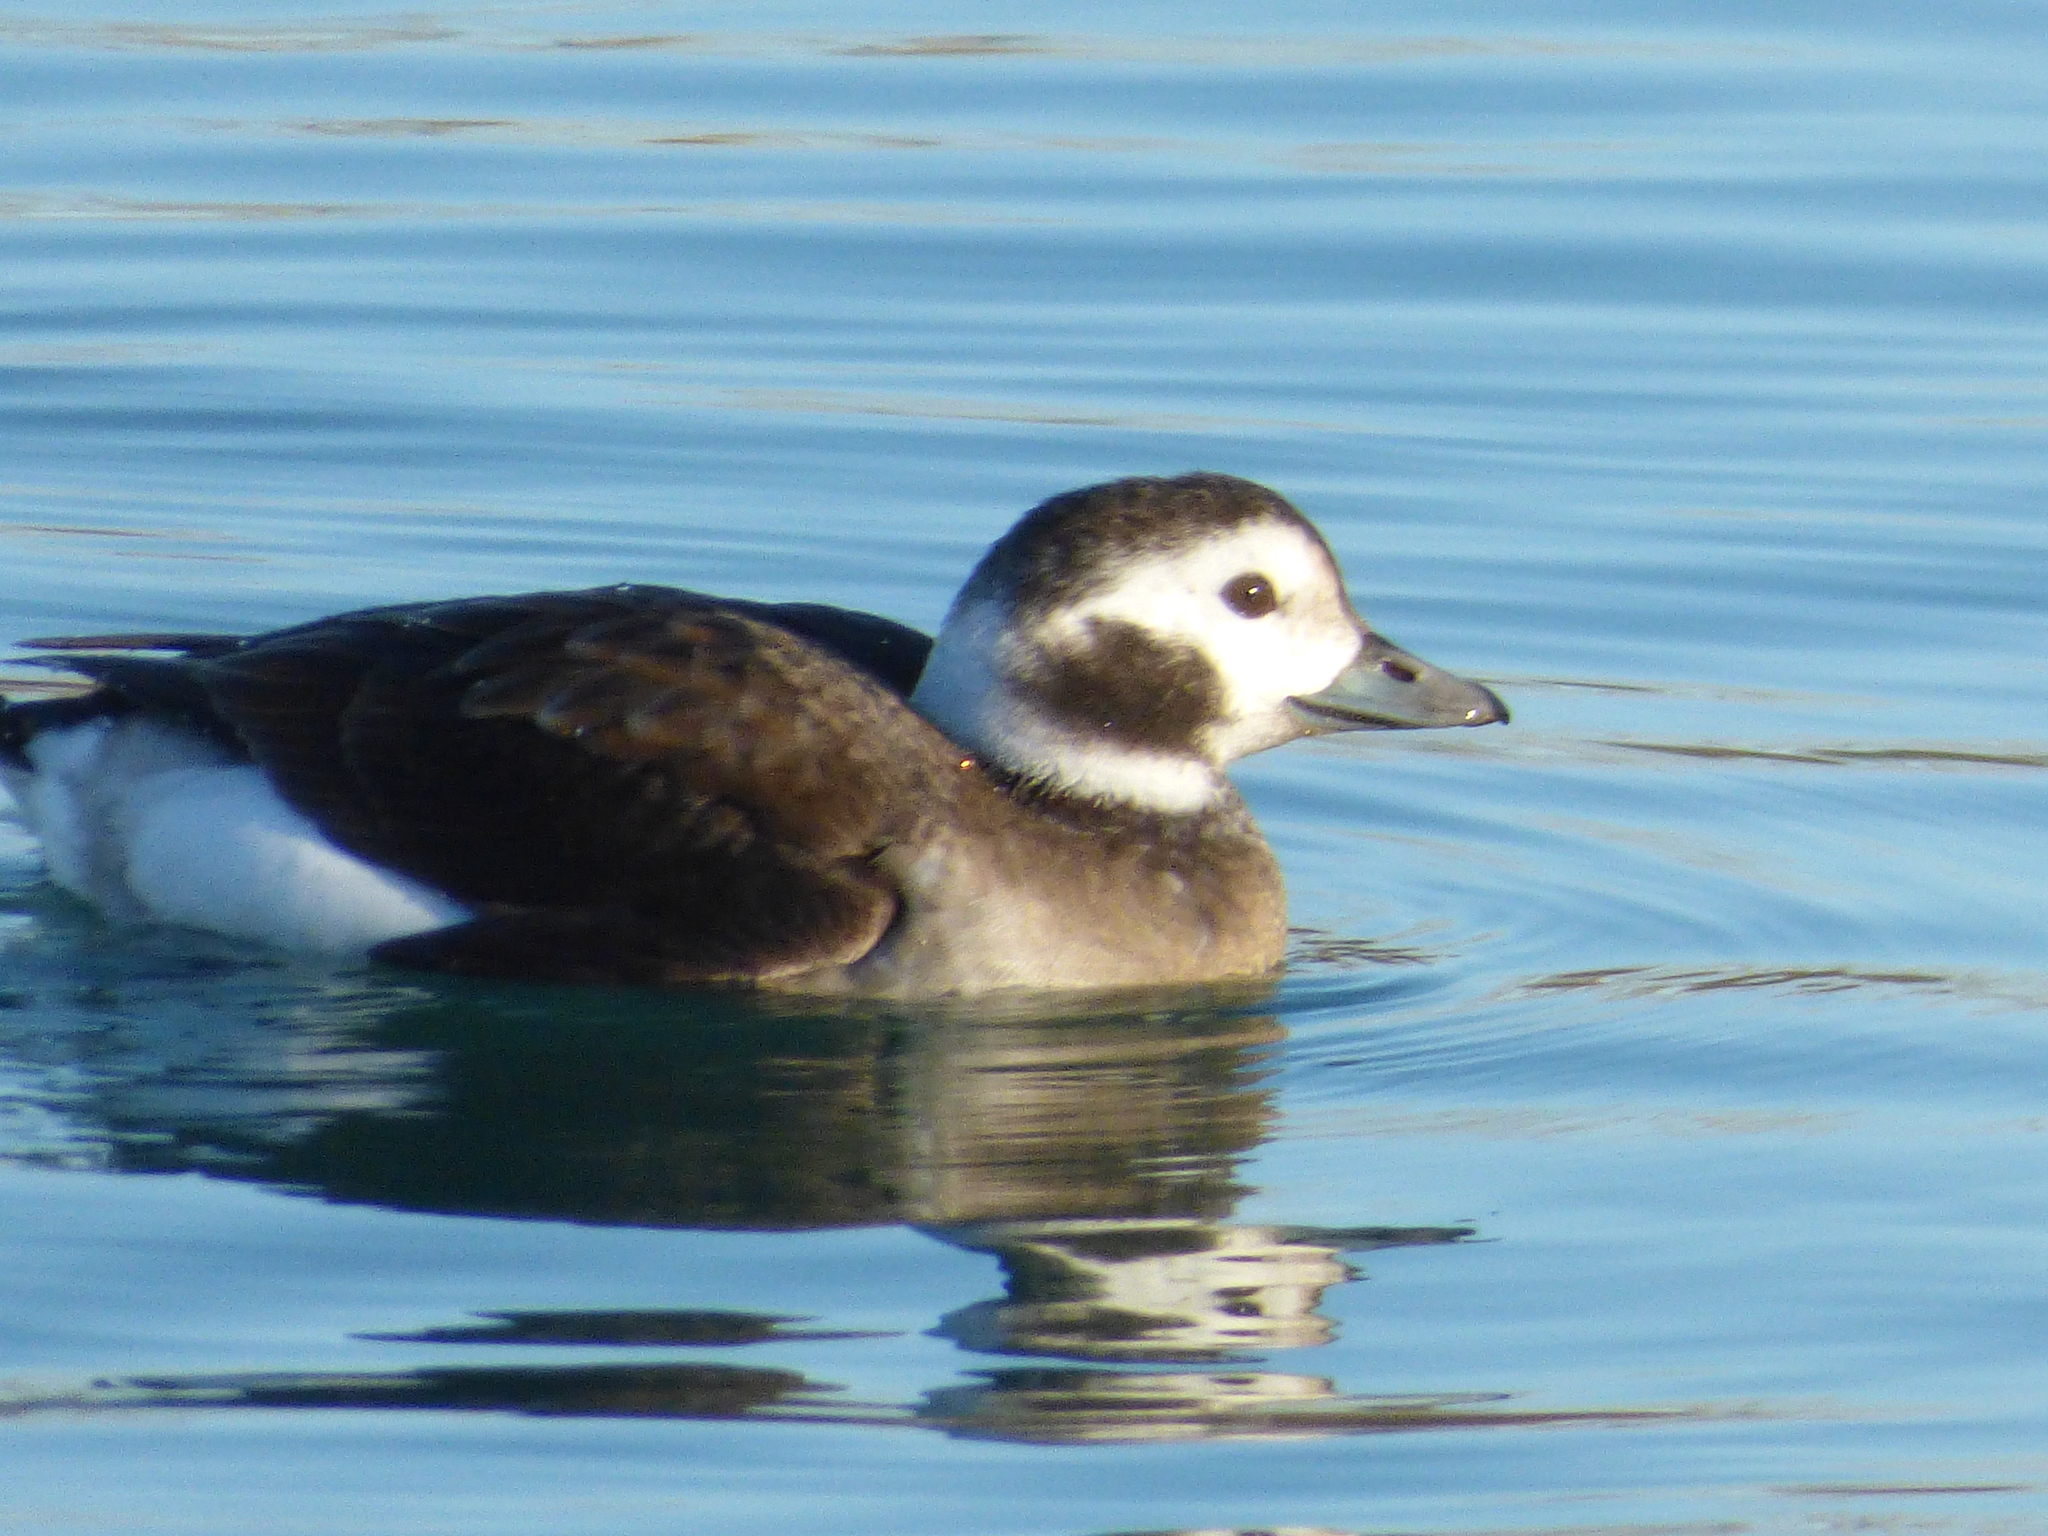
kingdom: Animalia
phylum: Chordata
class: Aves
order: Anseriformes
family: Anatidae
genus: Clangula
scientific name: Clangula hyemalis
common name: Long-tailed duck
